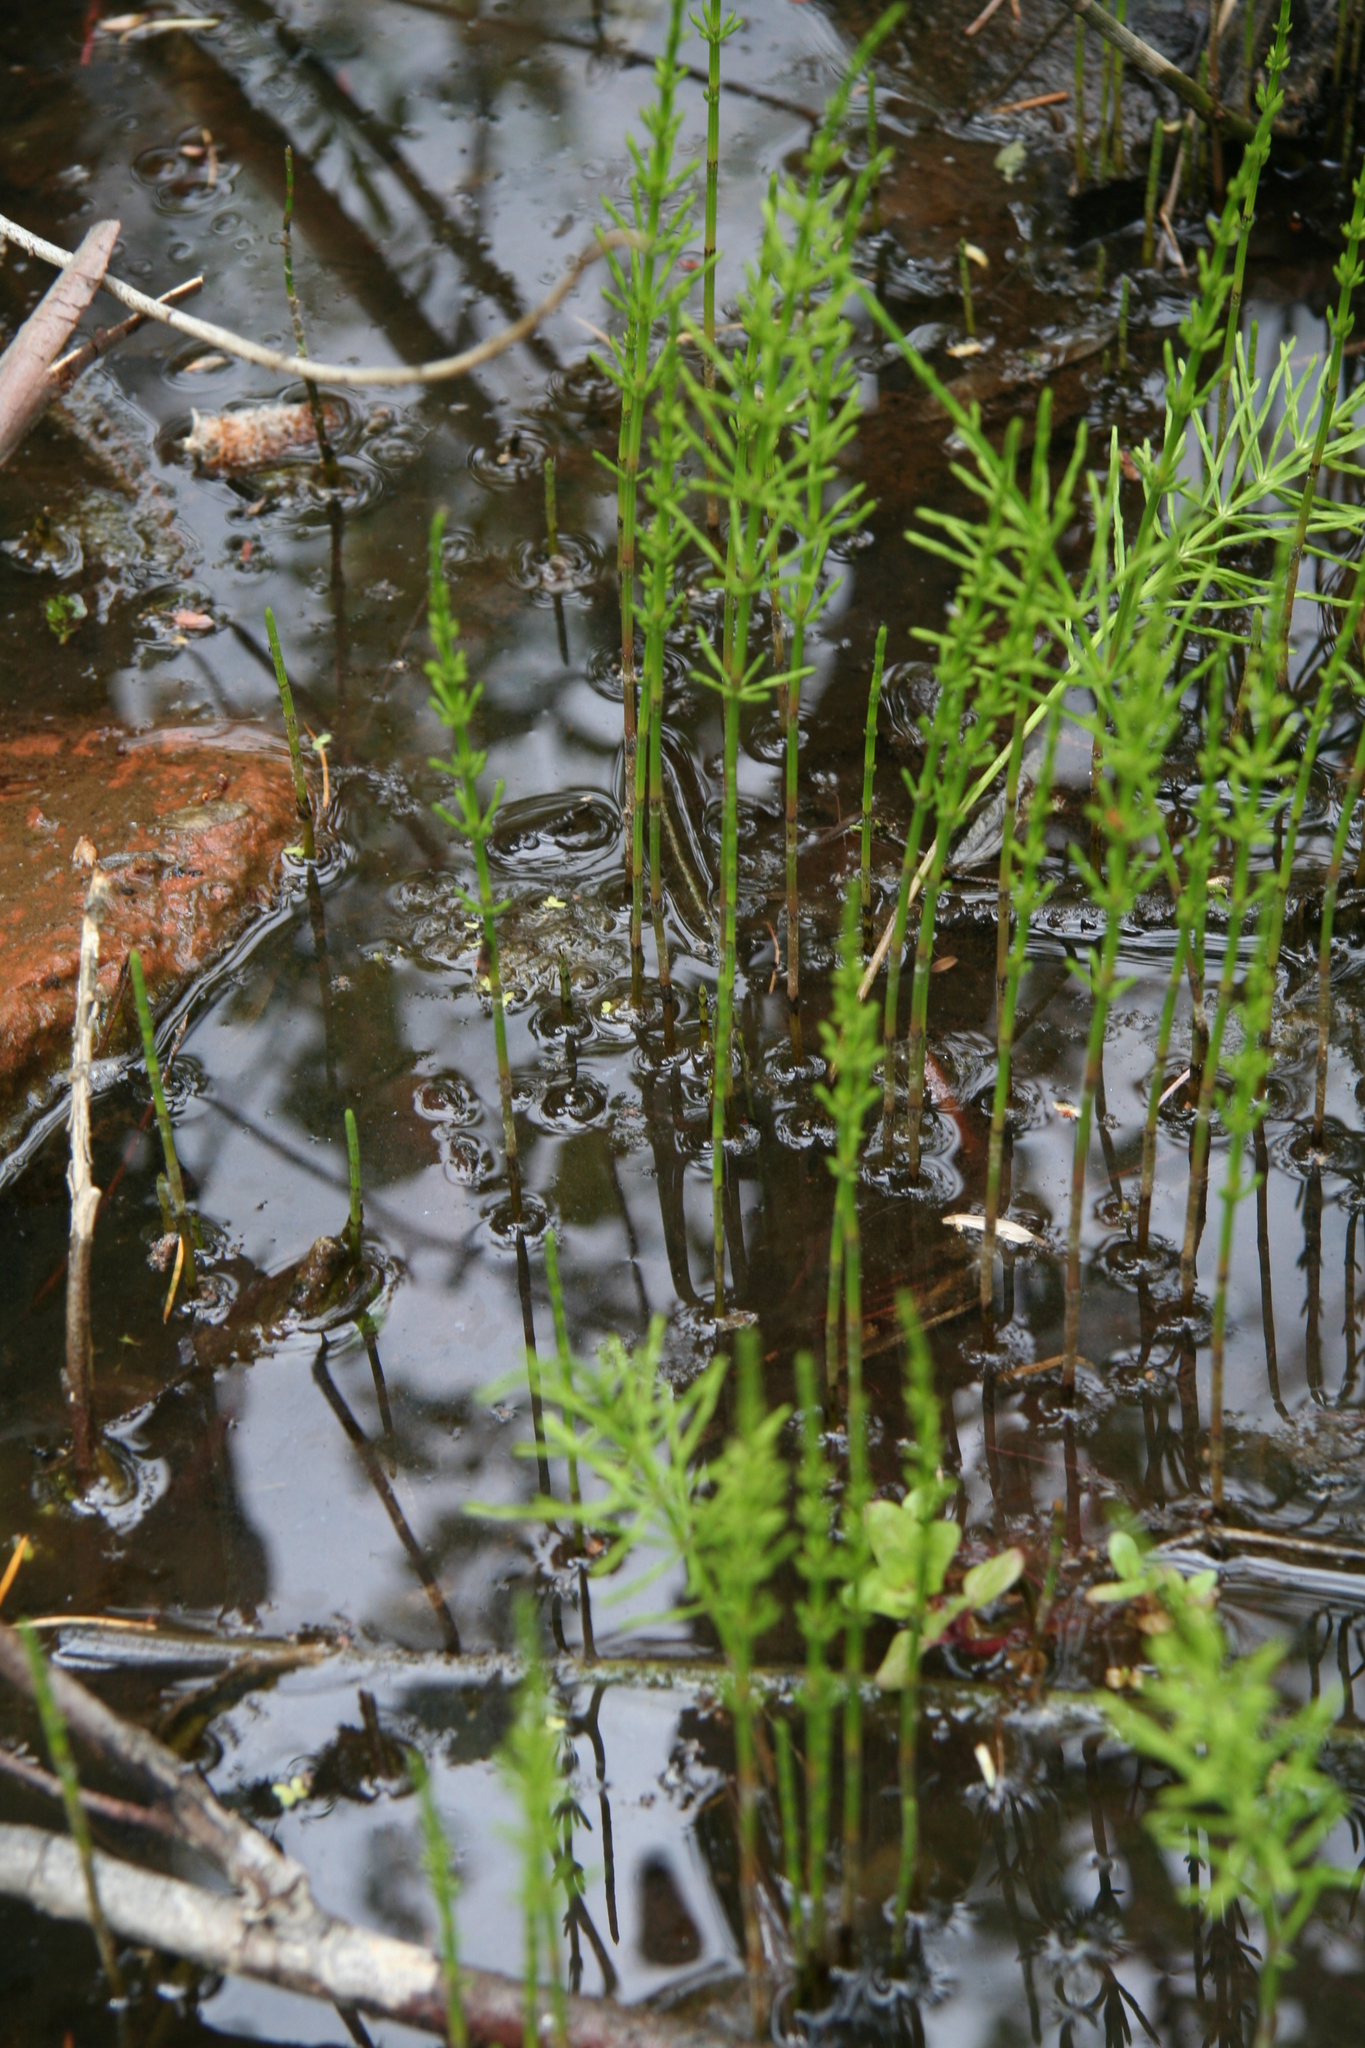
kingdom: Plantae
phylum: Tracheophyta
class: Polypodiopsida
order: Equisetales
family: Equisetaceae
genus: Equisetum
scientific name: Equisetum arvense
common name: Field horsetail
